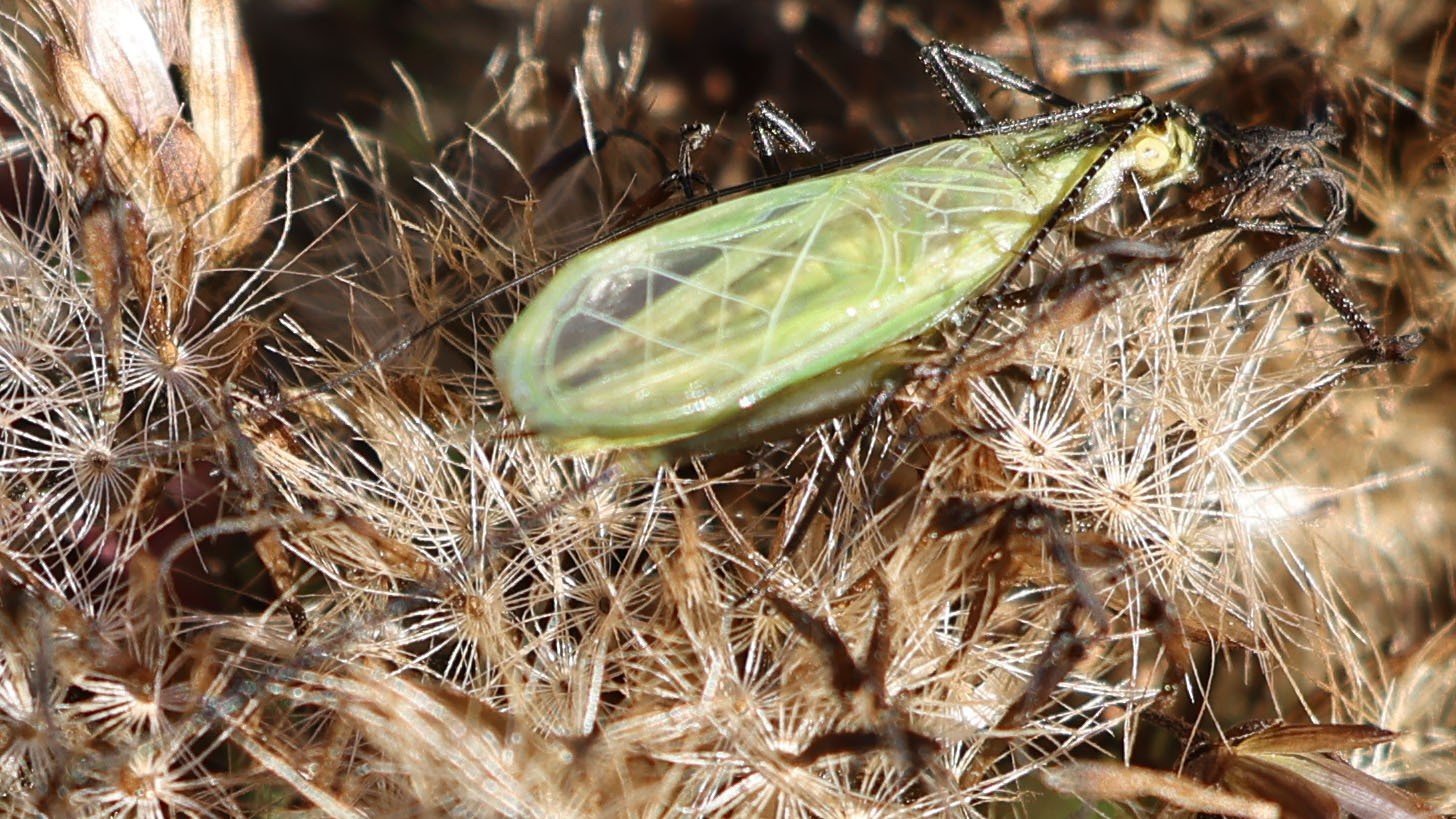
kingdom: Animalia
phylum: Arthropoda
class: Insecta
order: Orthoptera
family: Gryllidae
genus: Oecanthus
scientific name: Oecanthus nigricornis
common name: Black-horned tree cricket
